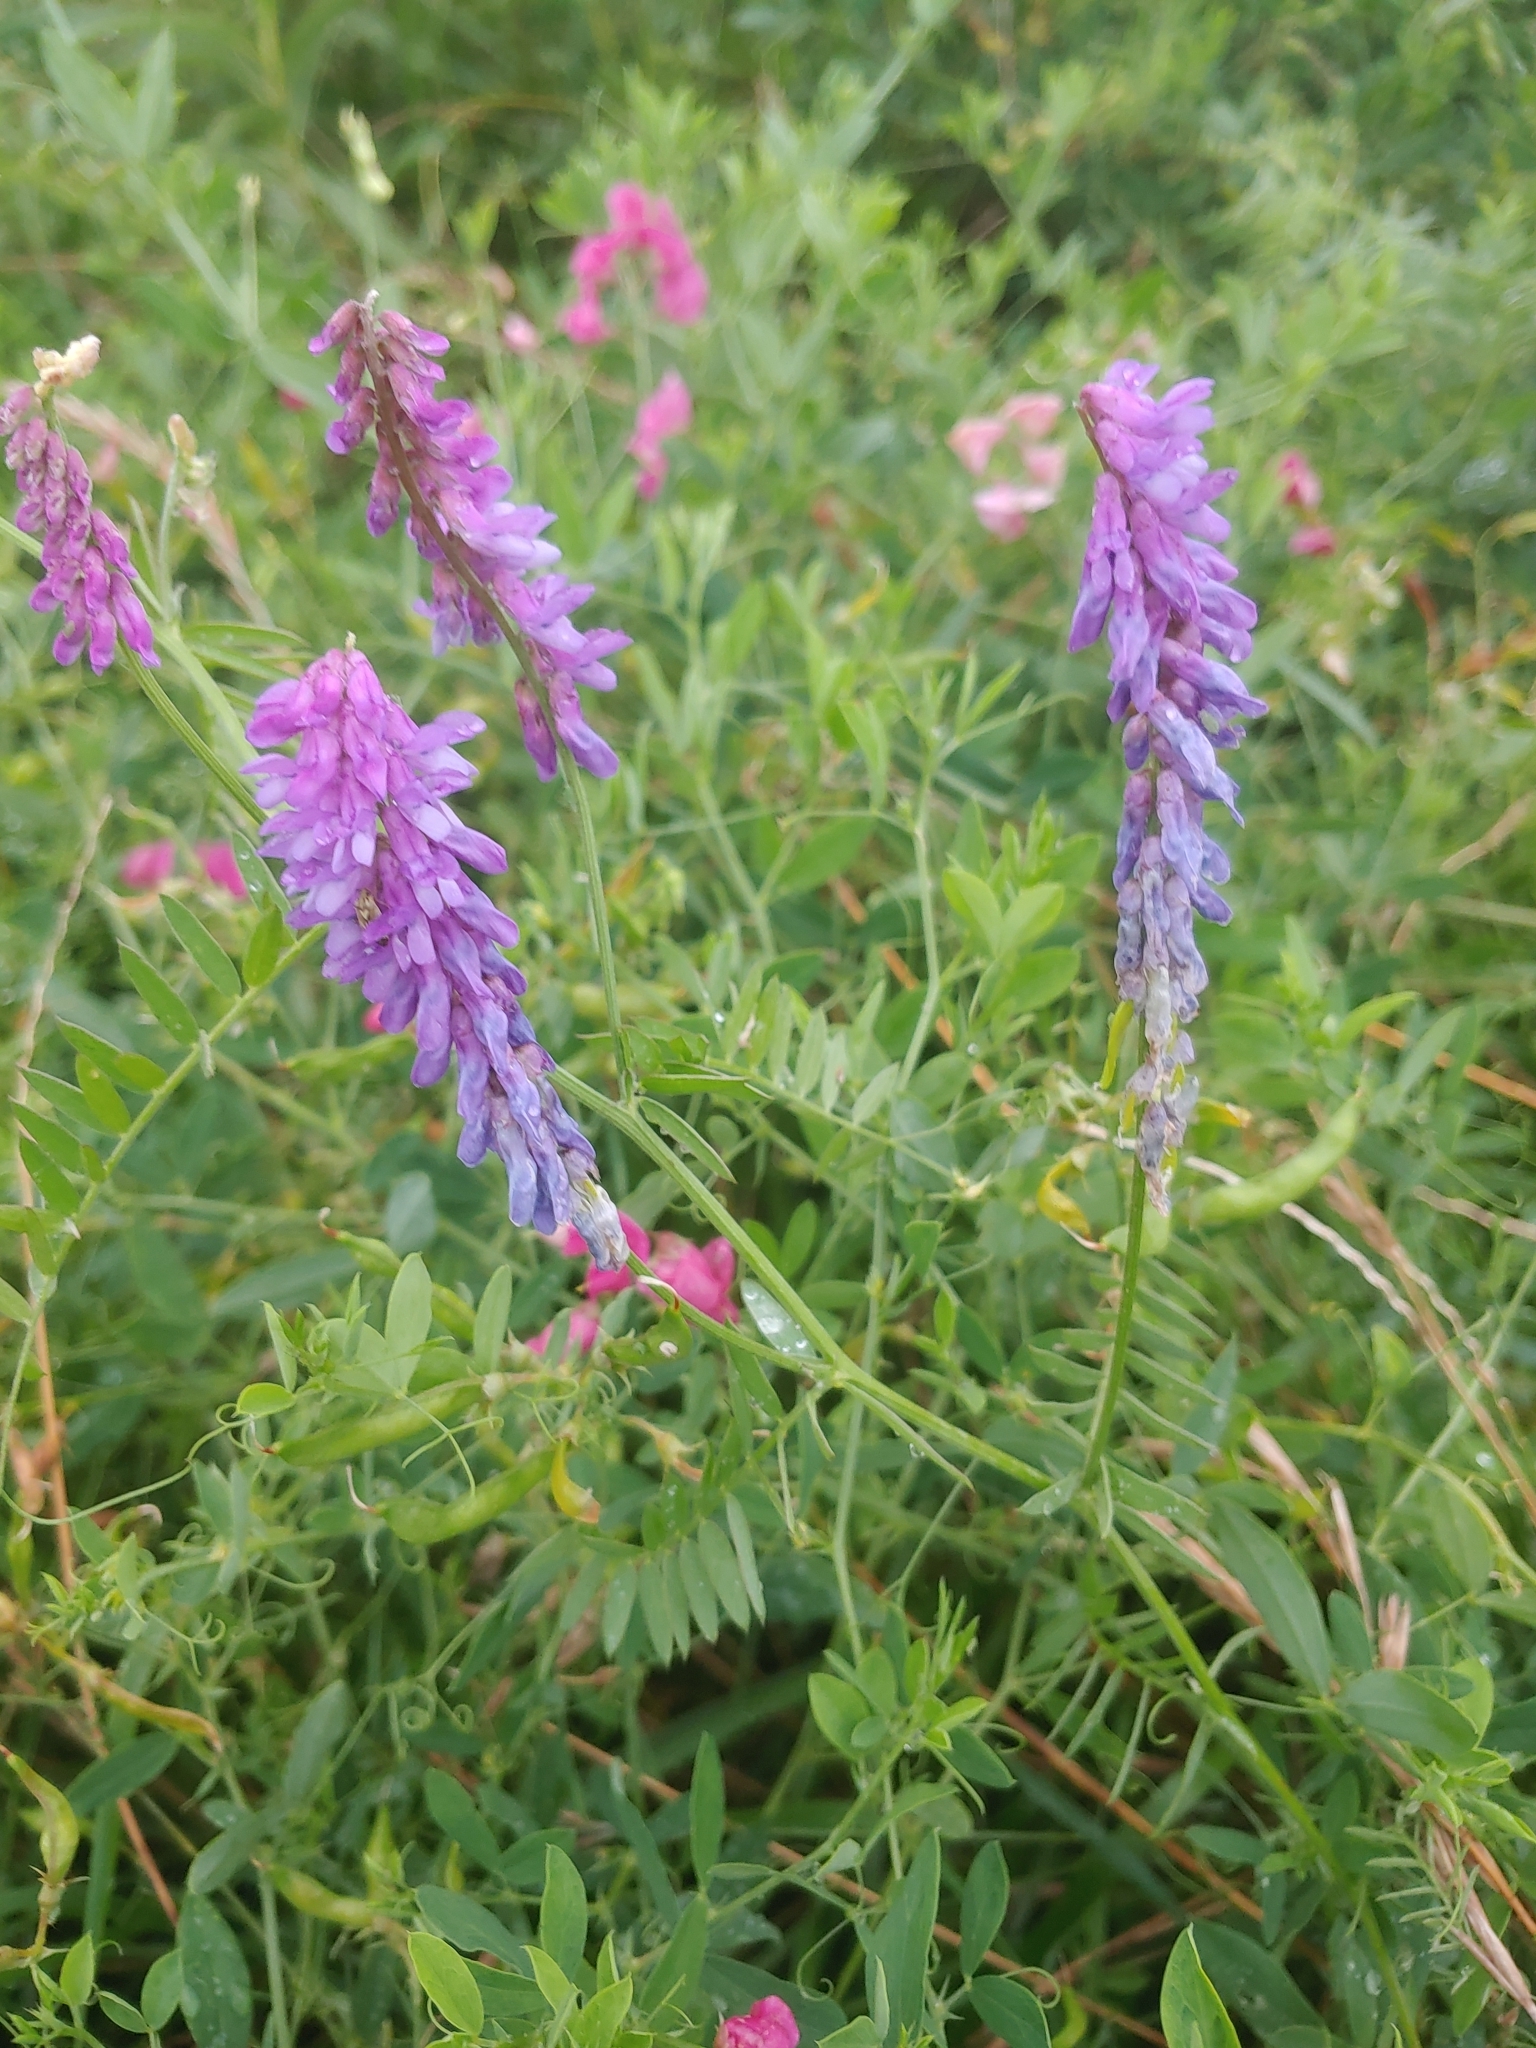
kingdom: Plantae
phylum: Tracheophyta
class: Magnoliopsida
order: Fabales
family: Fabaceae
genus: Vicia
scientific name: Vicia cracca
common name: Bird vetch
